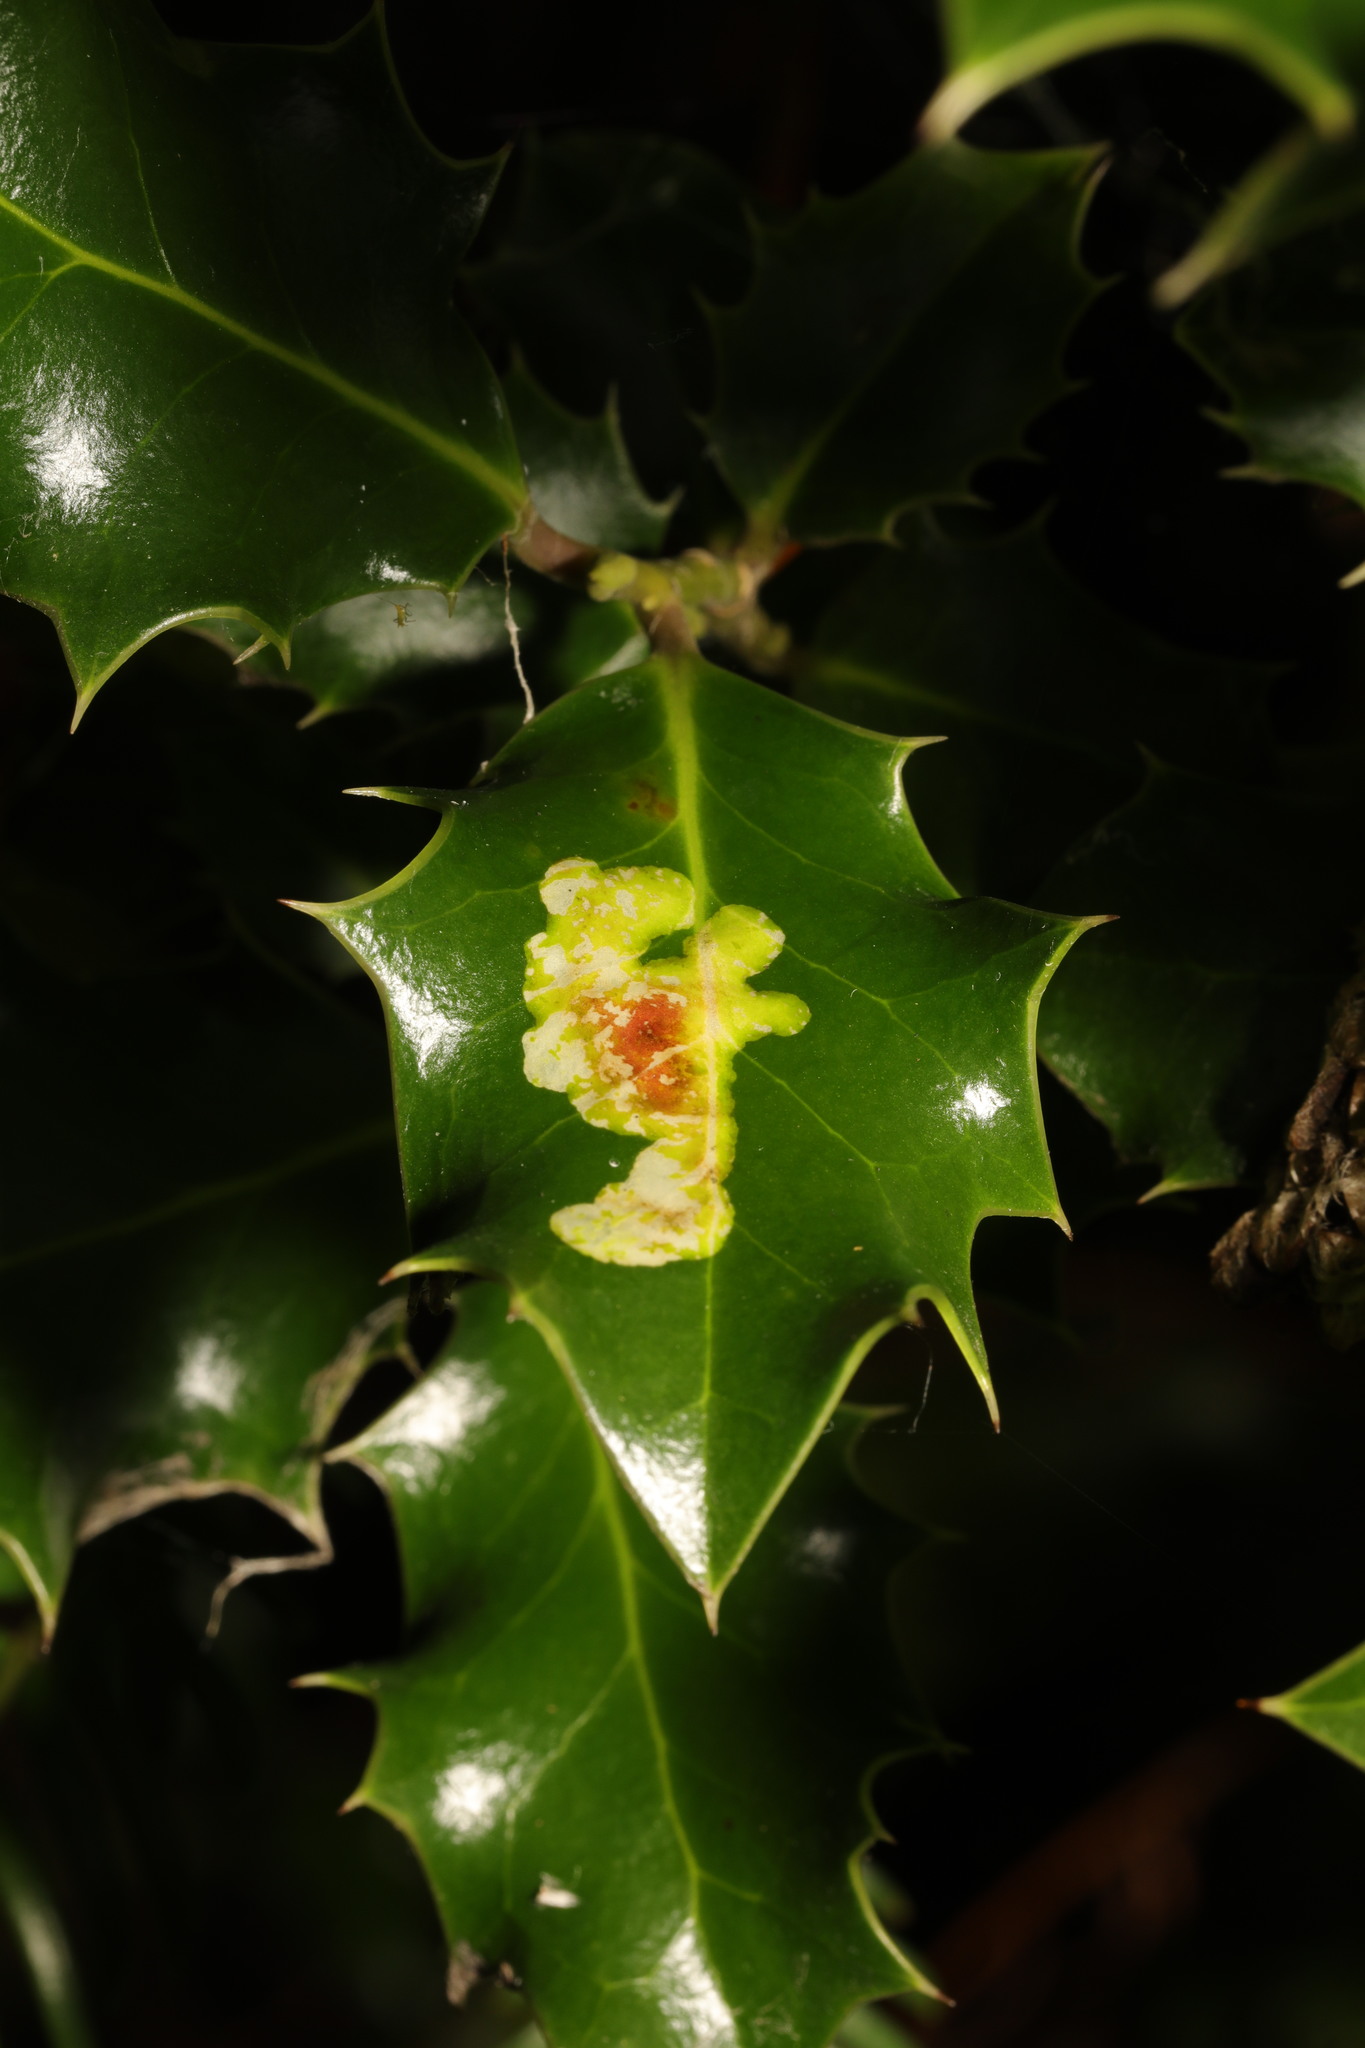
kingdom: Animalia
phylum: Arthropoda
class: Insecta
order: Diptera
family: Agromyzidae
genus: Phytomyza
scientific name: Phytomyza ilicis
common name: Holly leafminer
